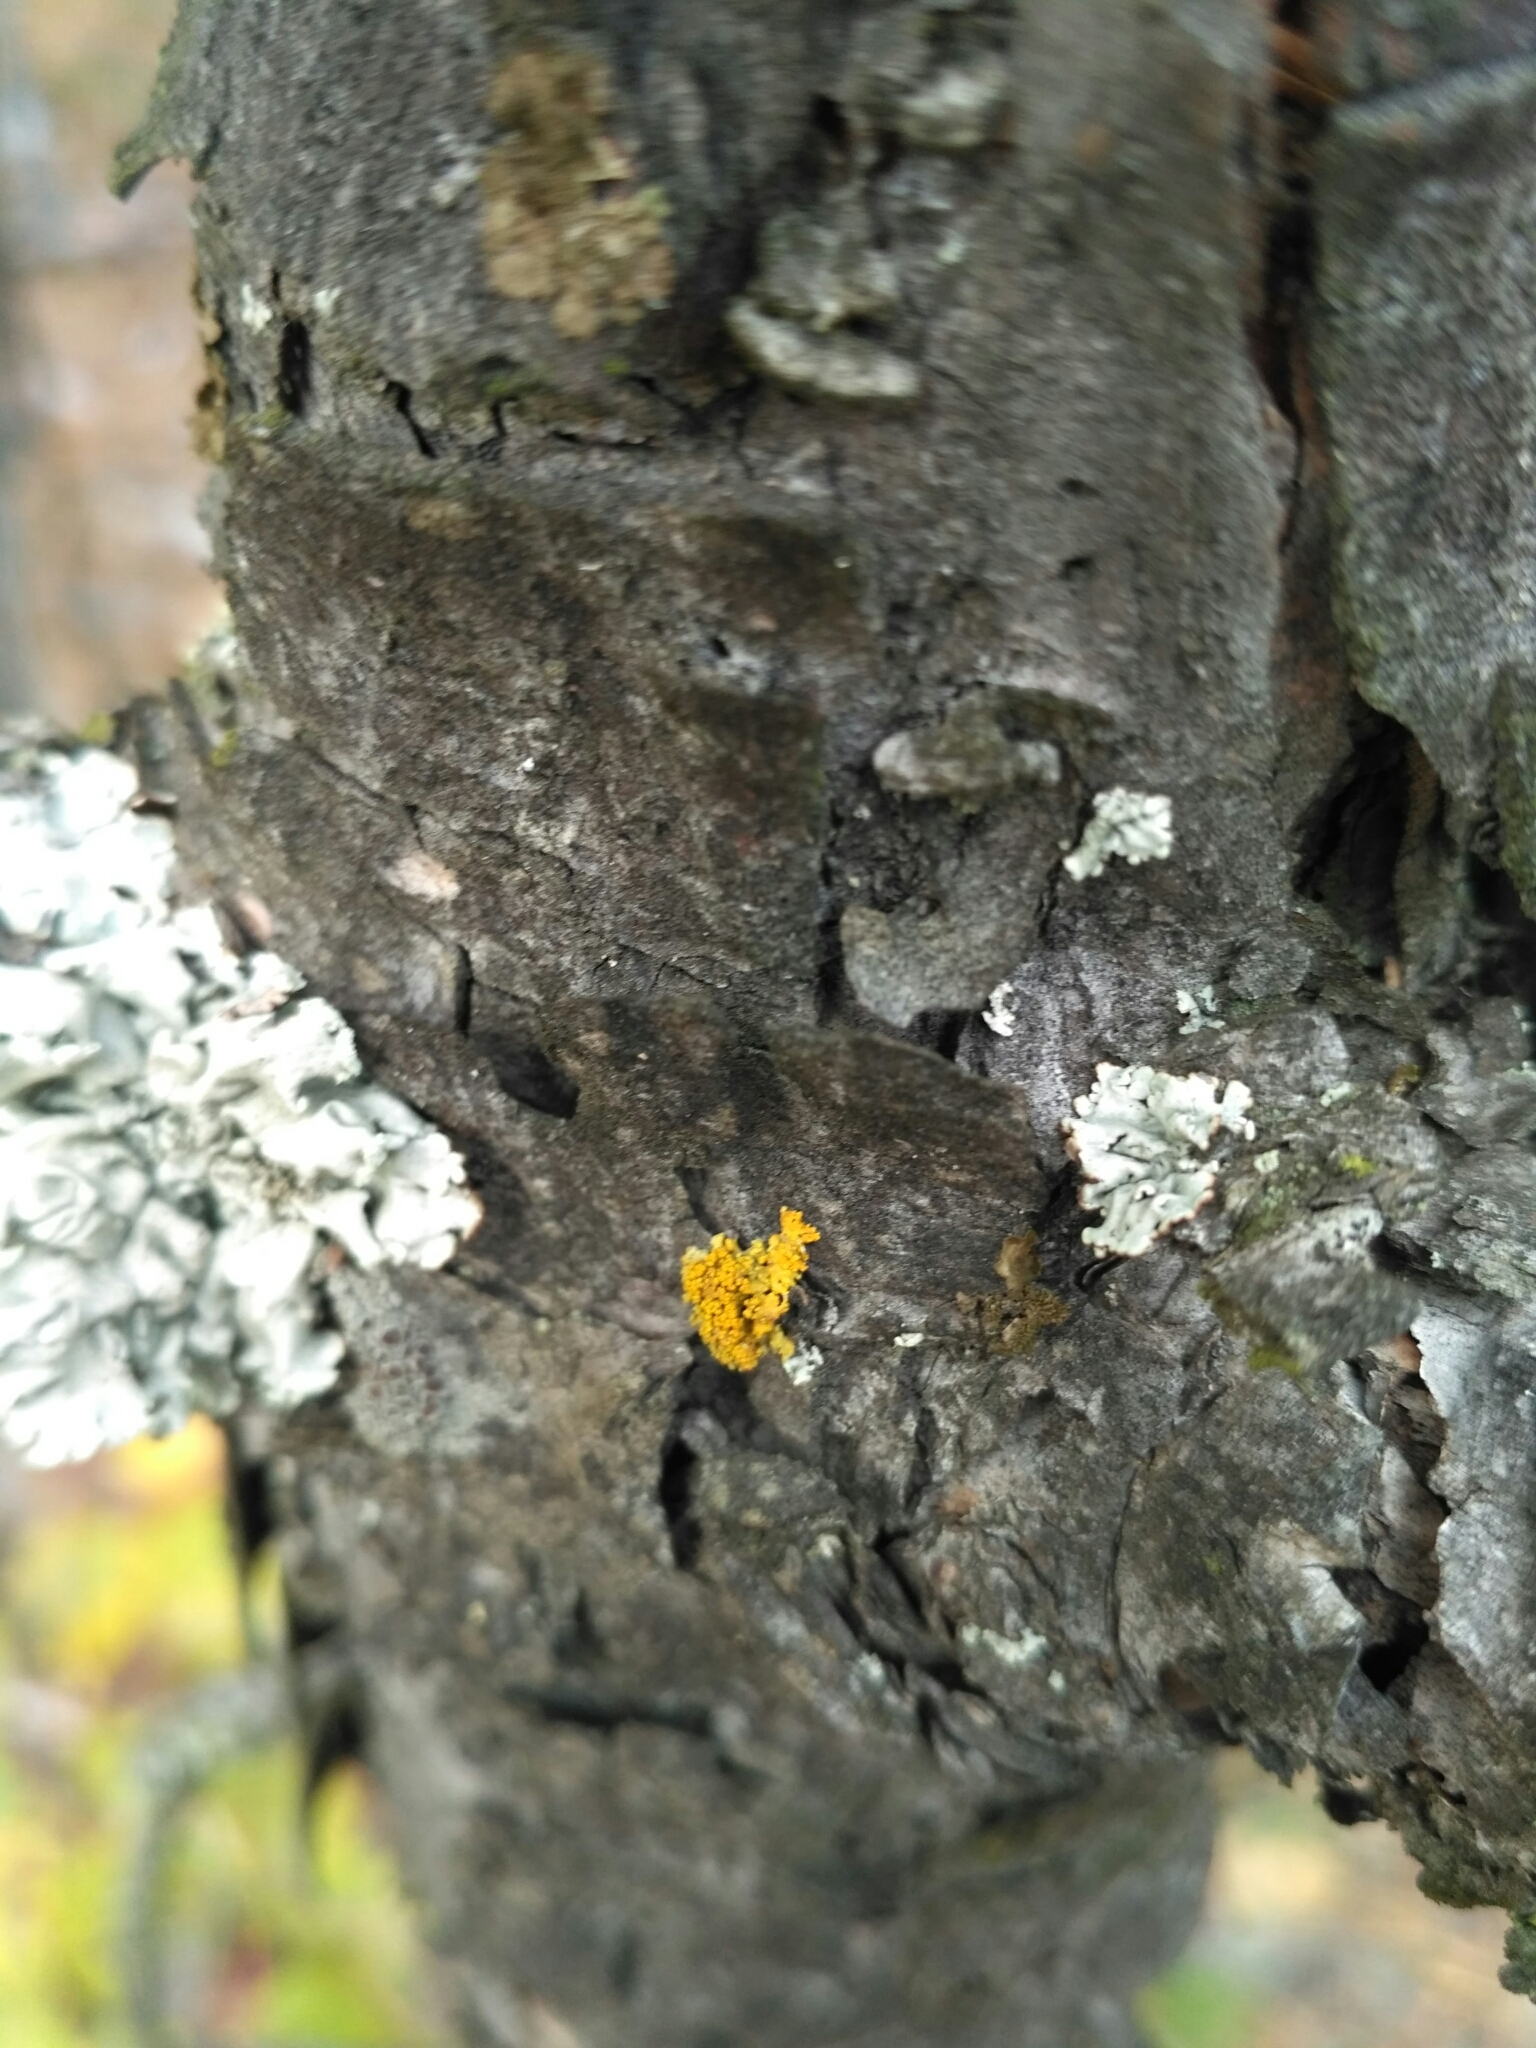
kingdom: Fungi
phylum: Ascomycota
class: Lecanoromycetes
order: Teloschistales
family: Teloschistaceae
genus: Polycauliona
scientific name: Polycauliona polycarpa
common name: Pin-cushion sunburst lichen
